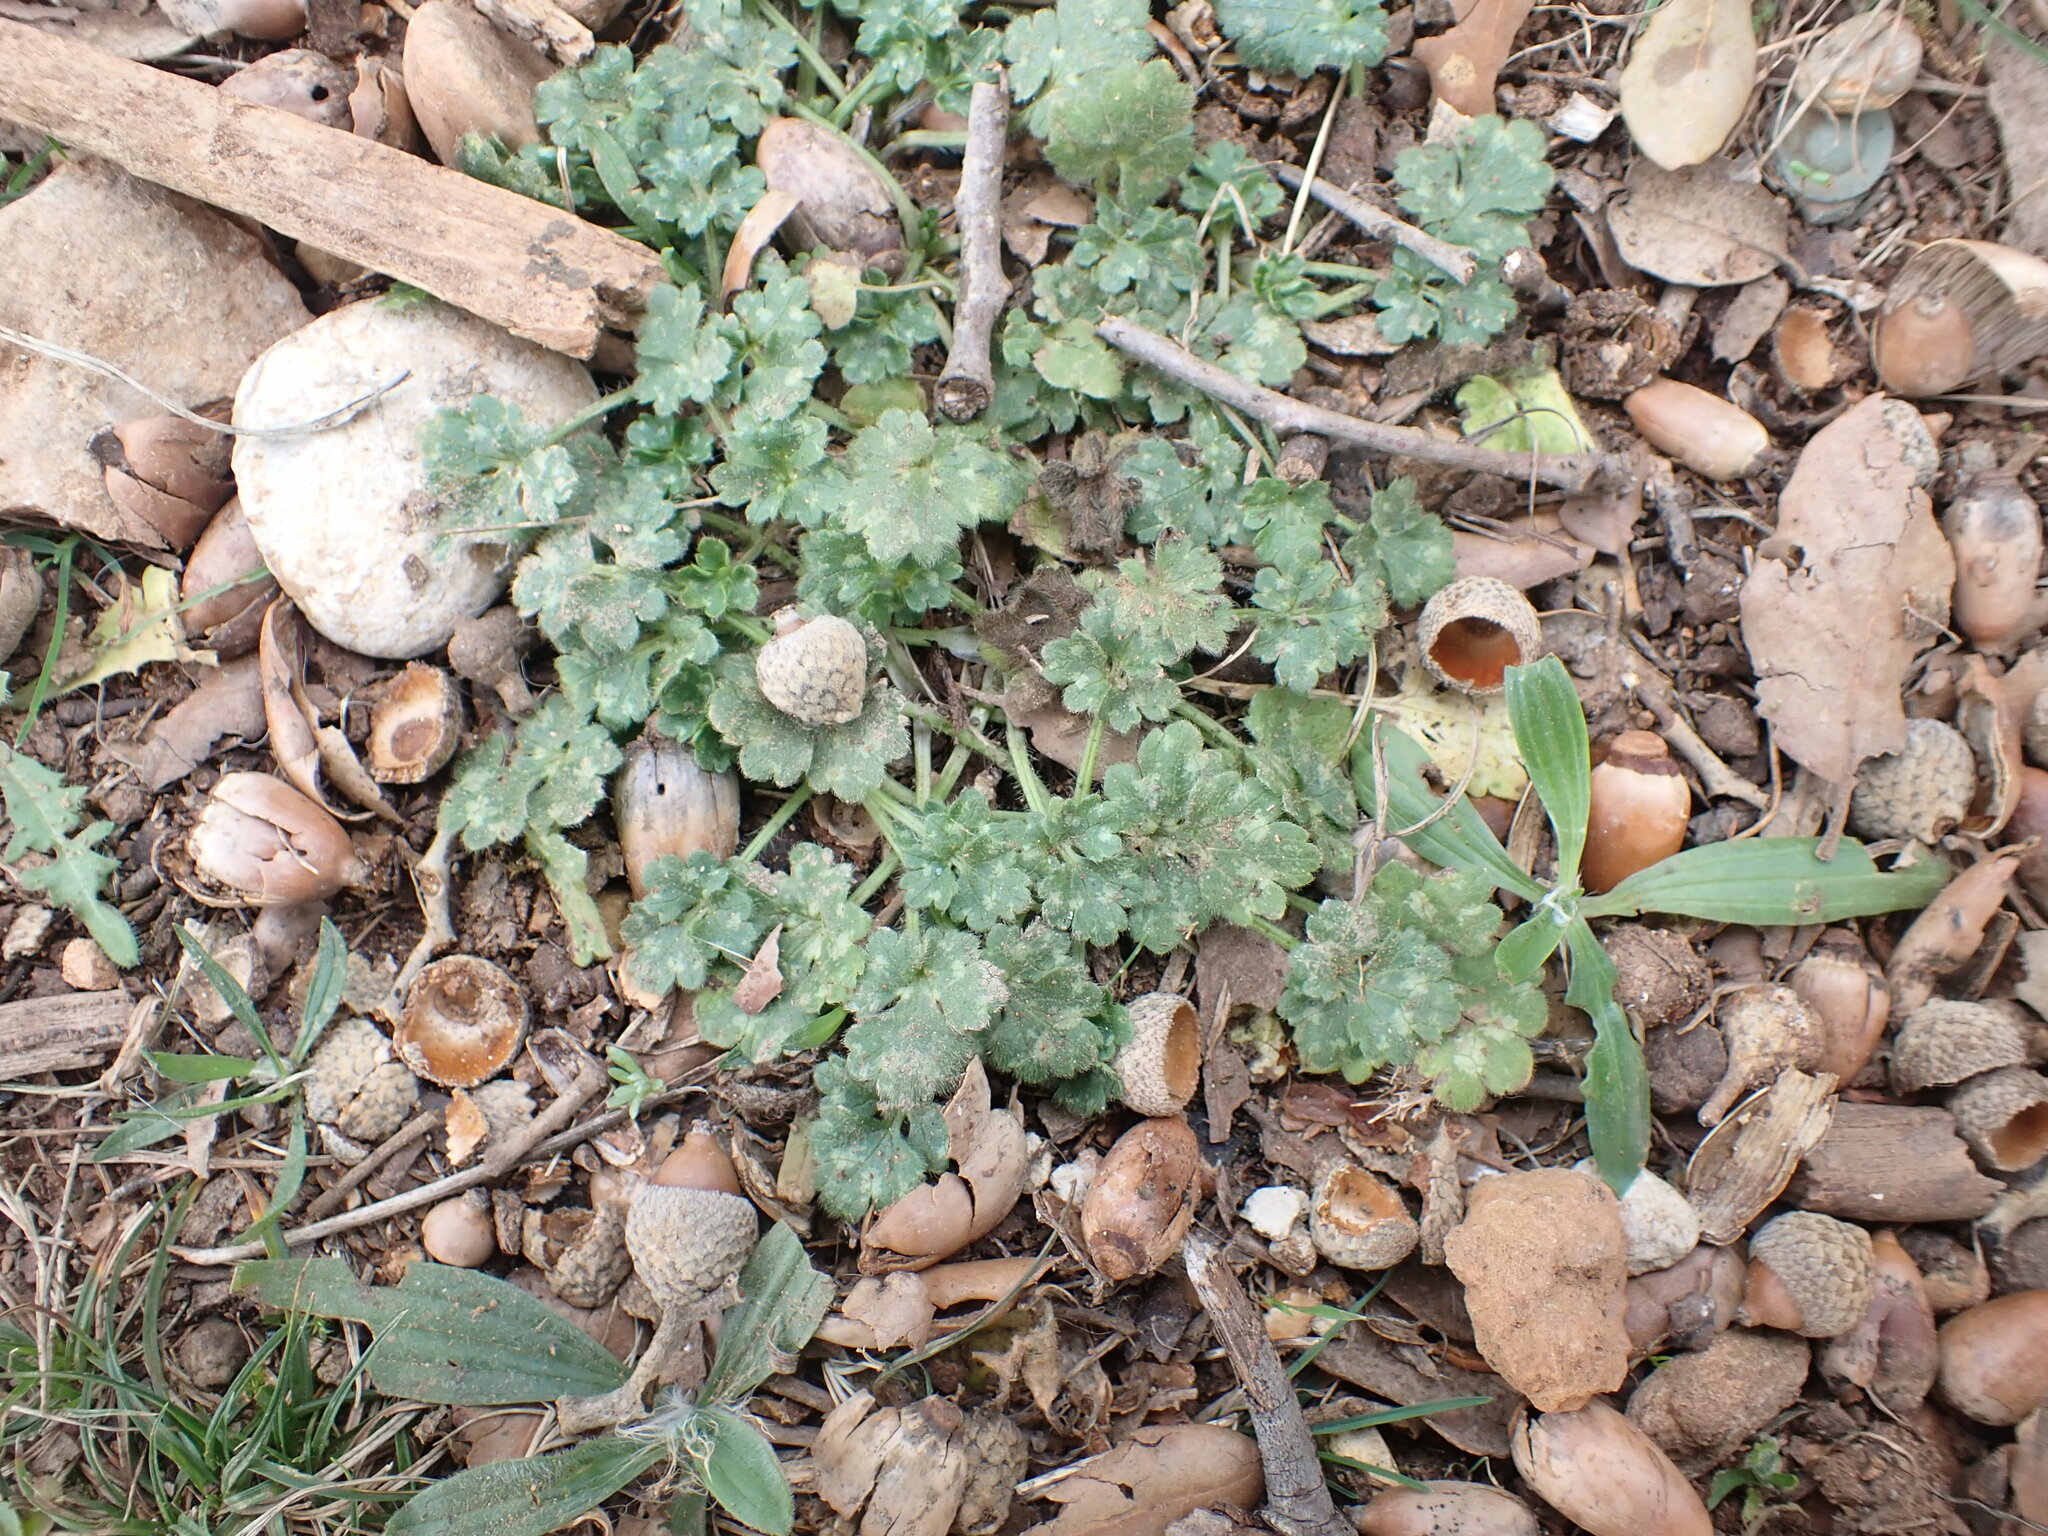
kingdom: Plantae
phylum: Tracheophyta
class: Magnoliopsida
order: Ranunculales
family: Ranunculaceae
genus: Ranunculus
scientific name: Ranunculus bulbosus
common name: Bulbous buttercup
